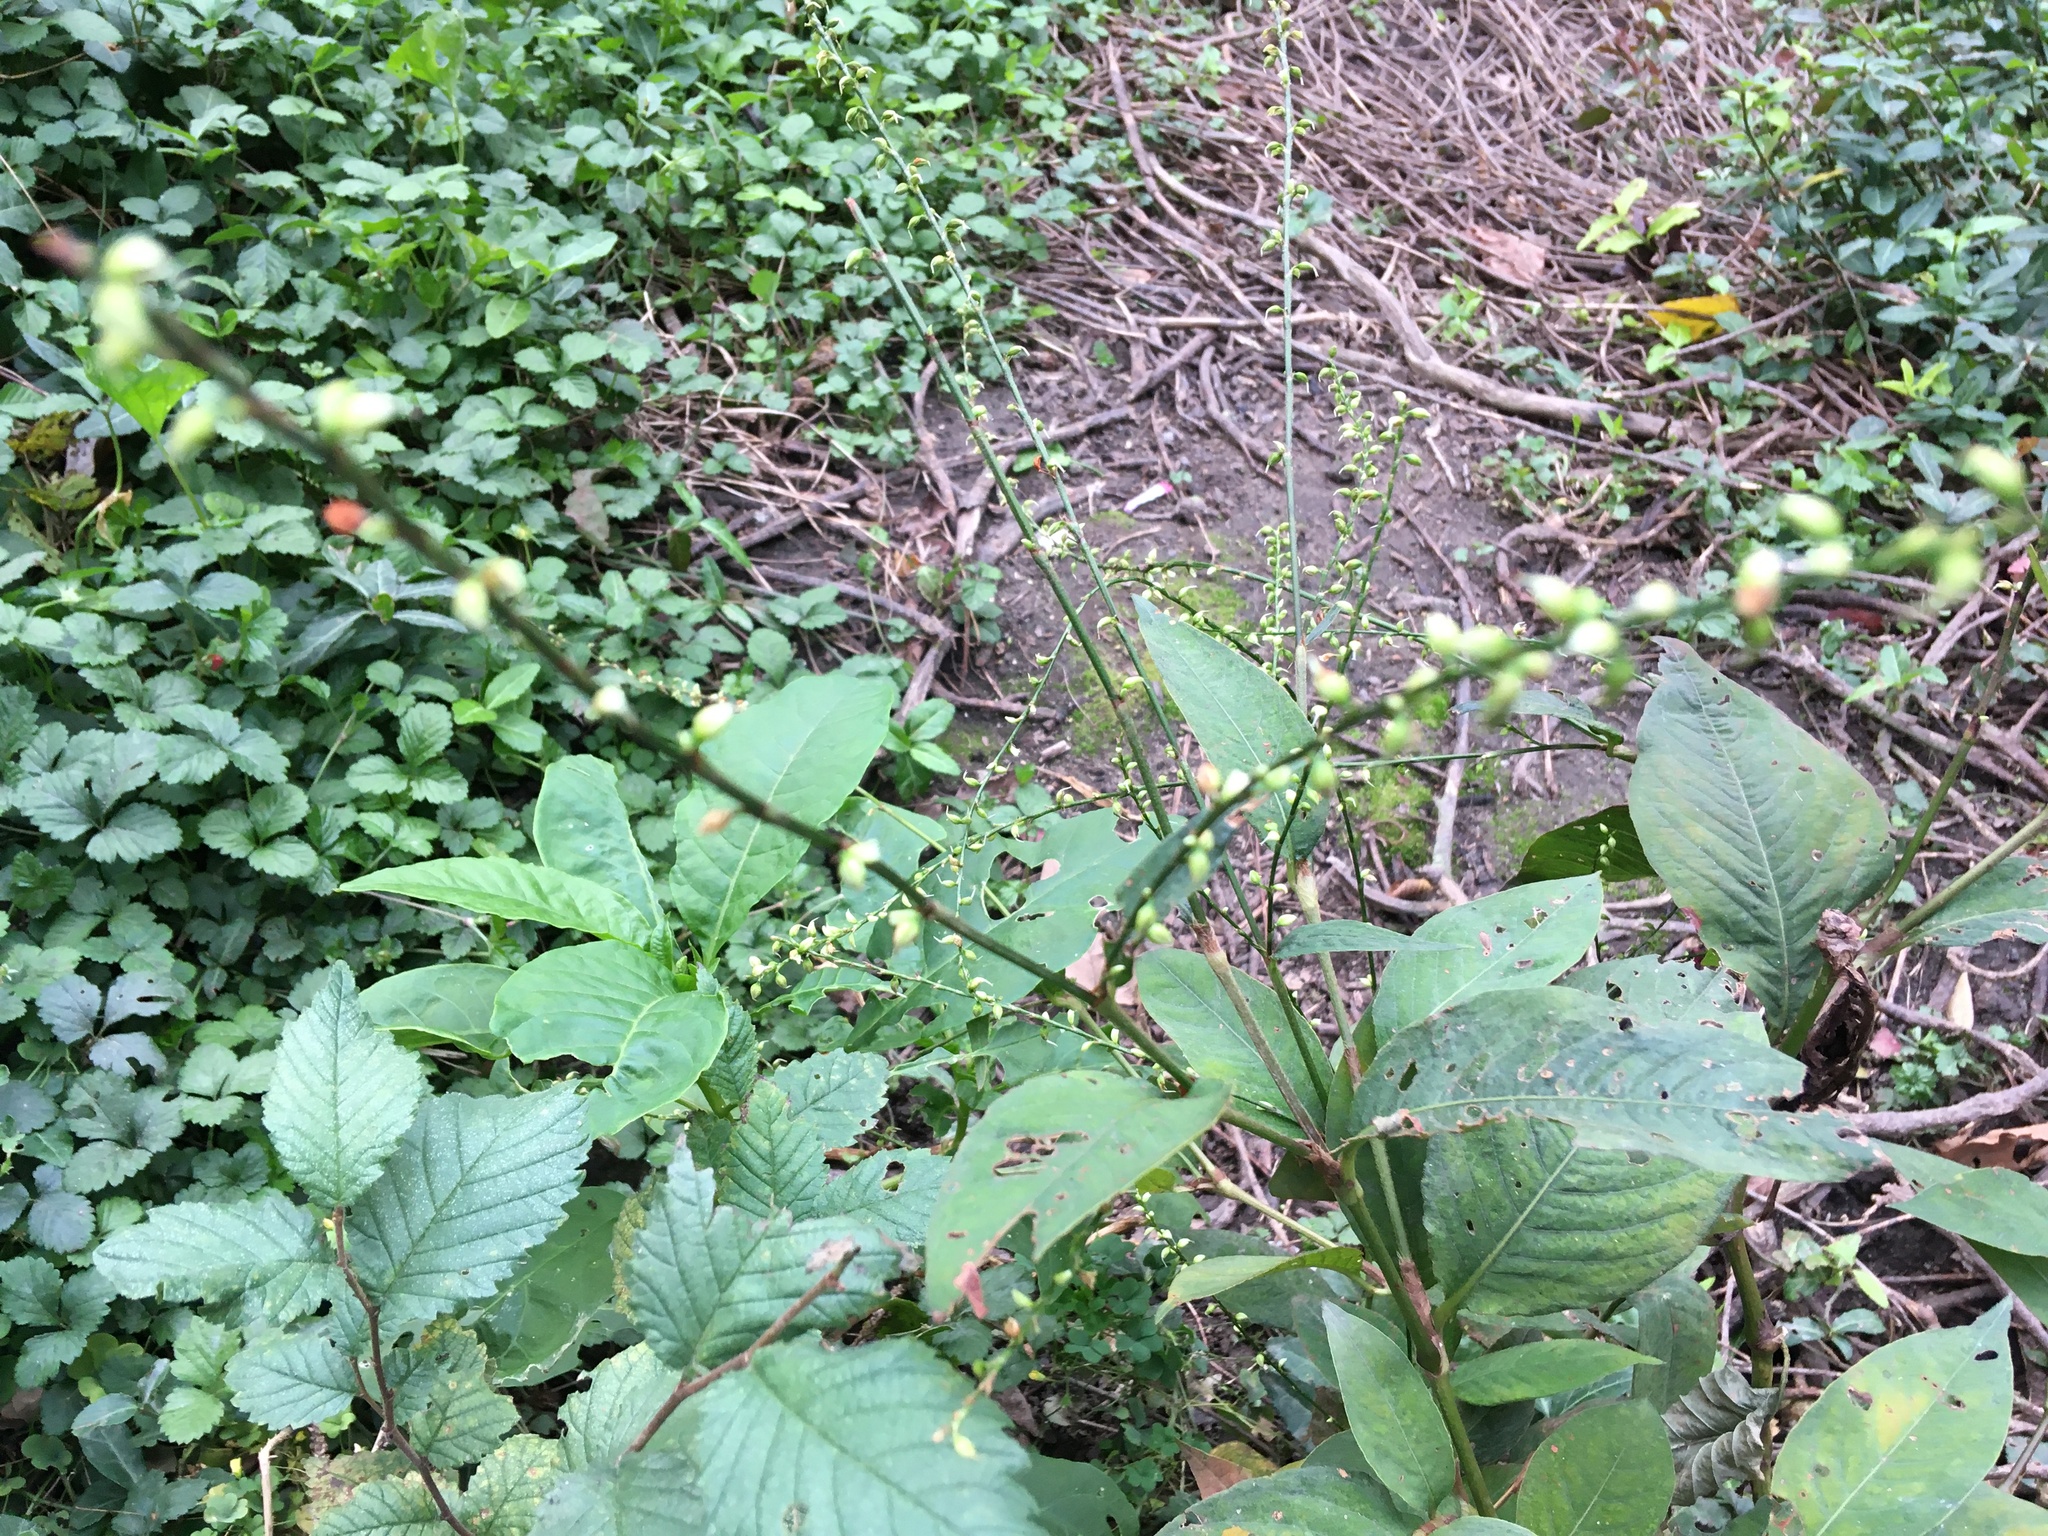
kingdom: Plantae
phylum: Tracheophyta
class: Magnoliopsida
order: Caryophyllales
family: Polygonaceae
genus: Persicaria
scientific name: Persicaria virginiana
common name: Jumpseed
